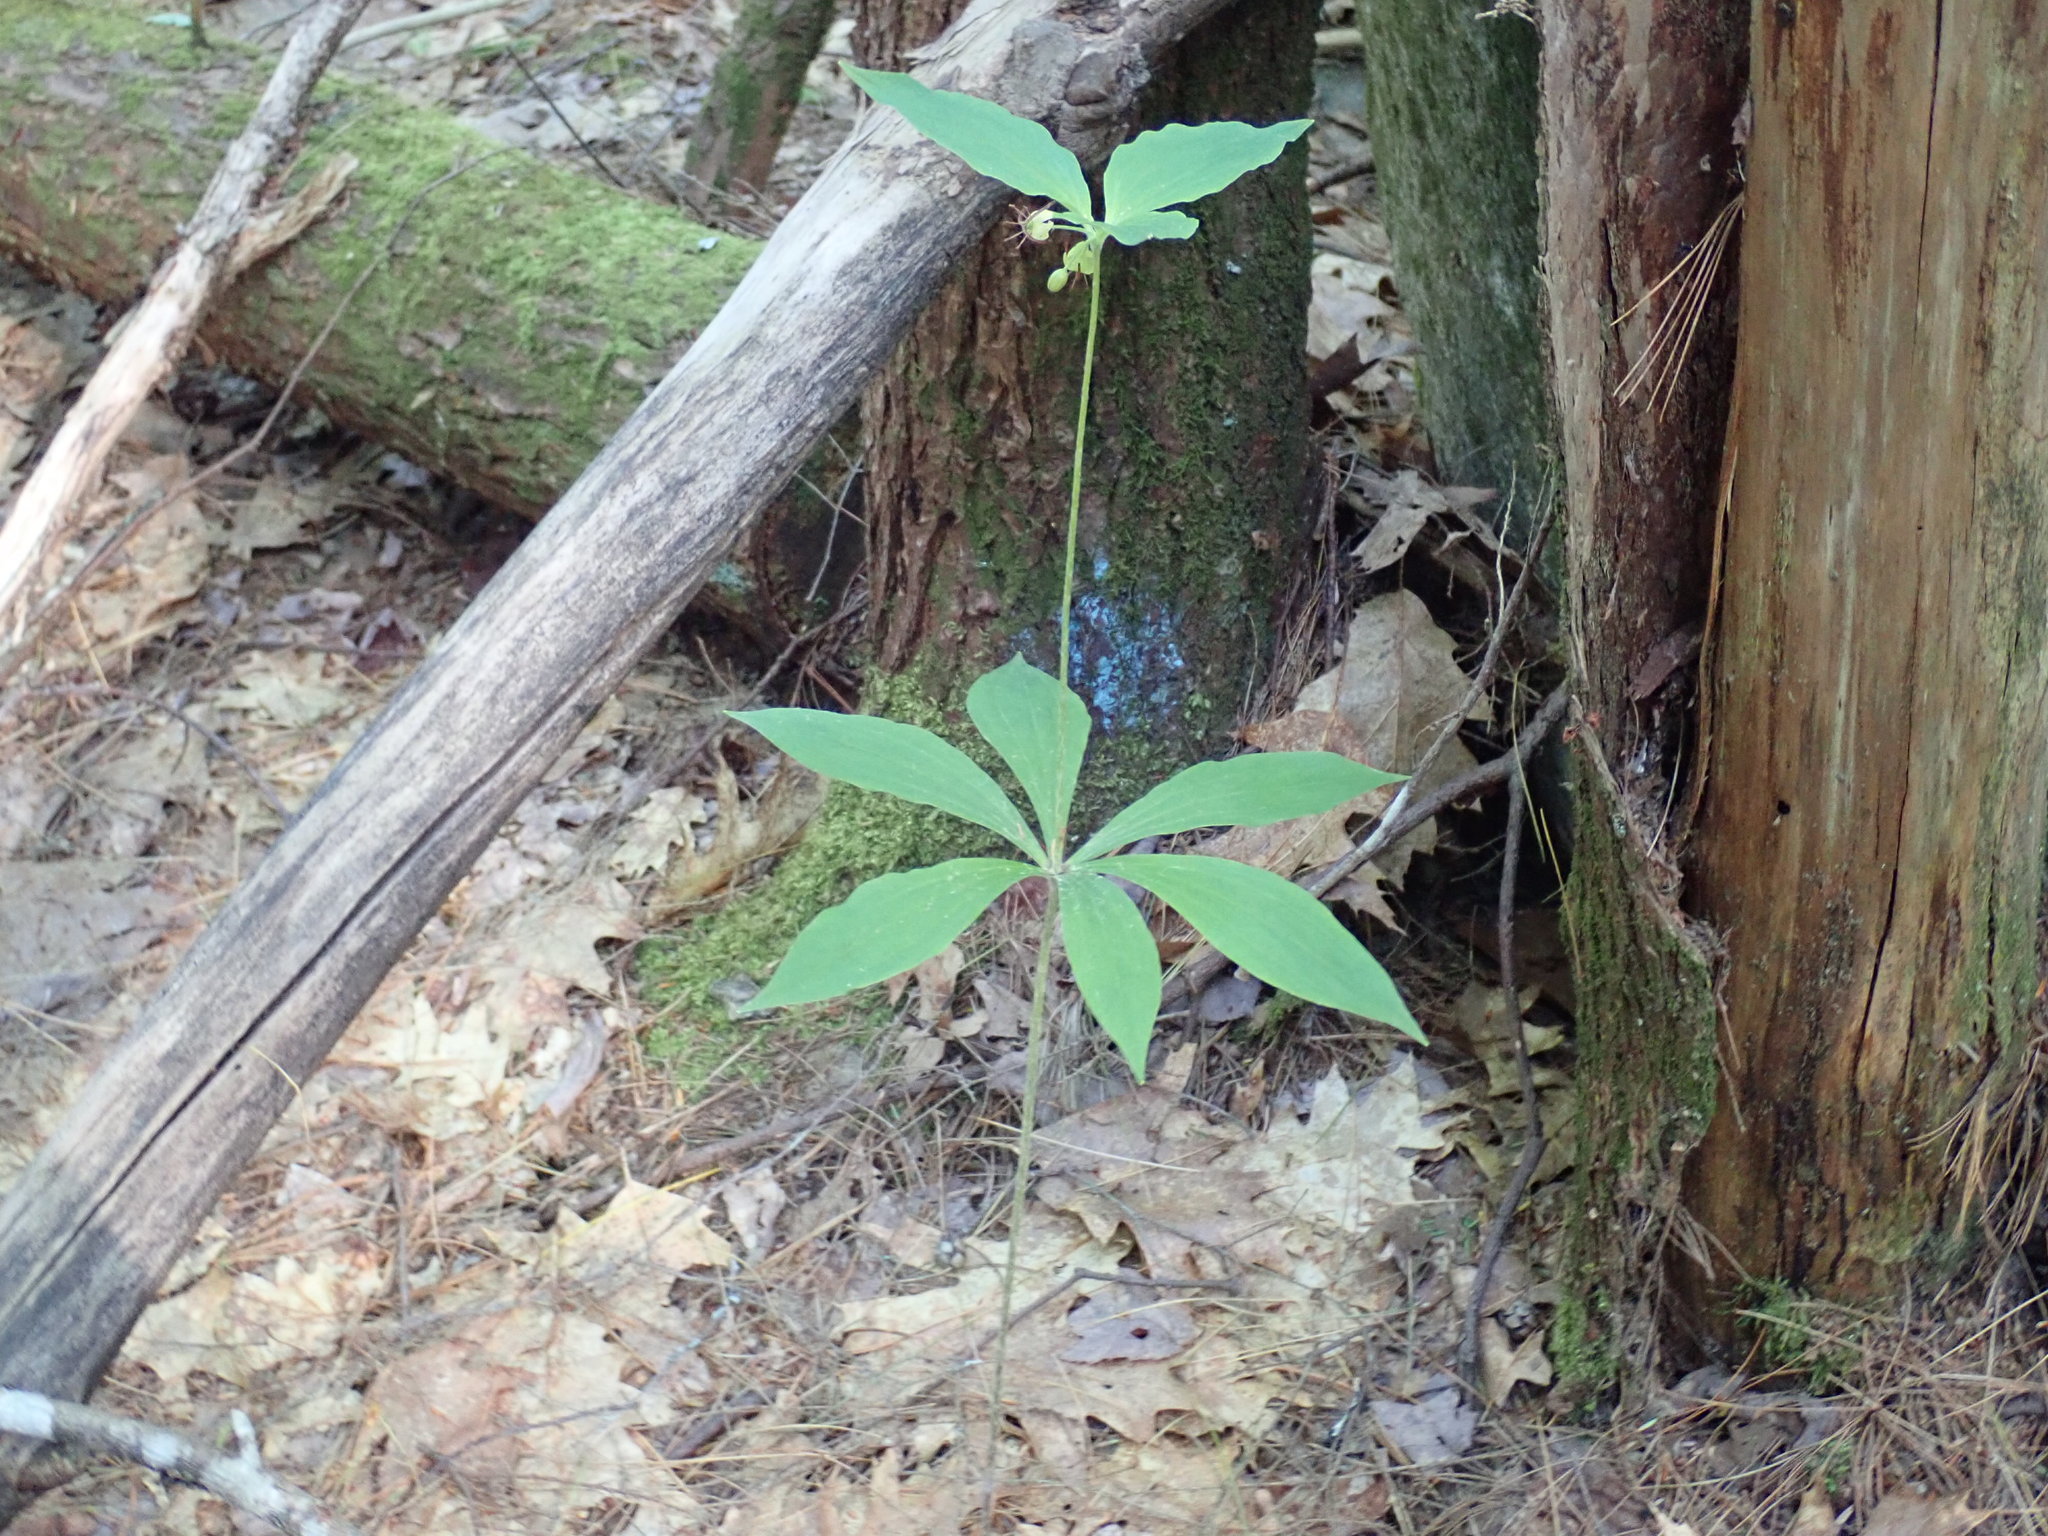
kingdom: Plantae
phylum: Tracheophyta
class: Liliopsida
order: Liliales
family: Liliaceae
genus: Medeola
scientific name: Medeola virginiana
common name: Indian cucumber-root
